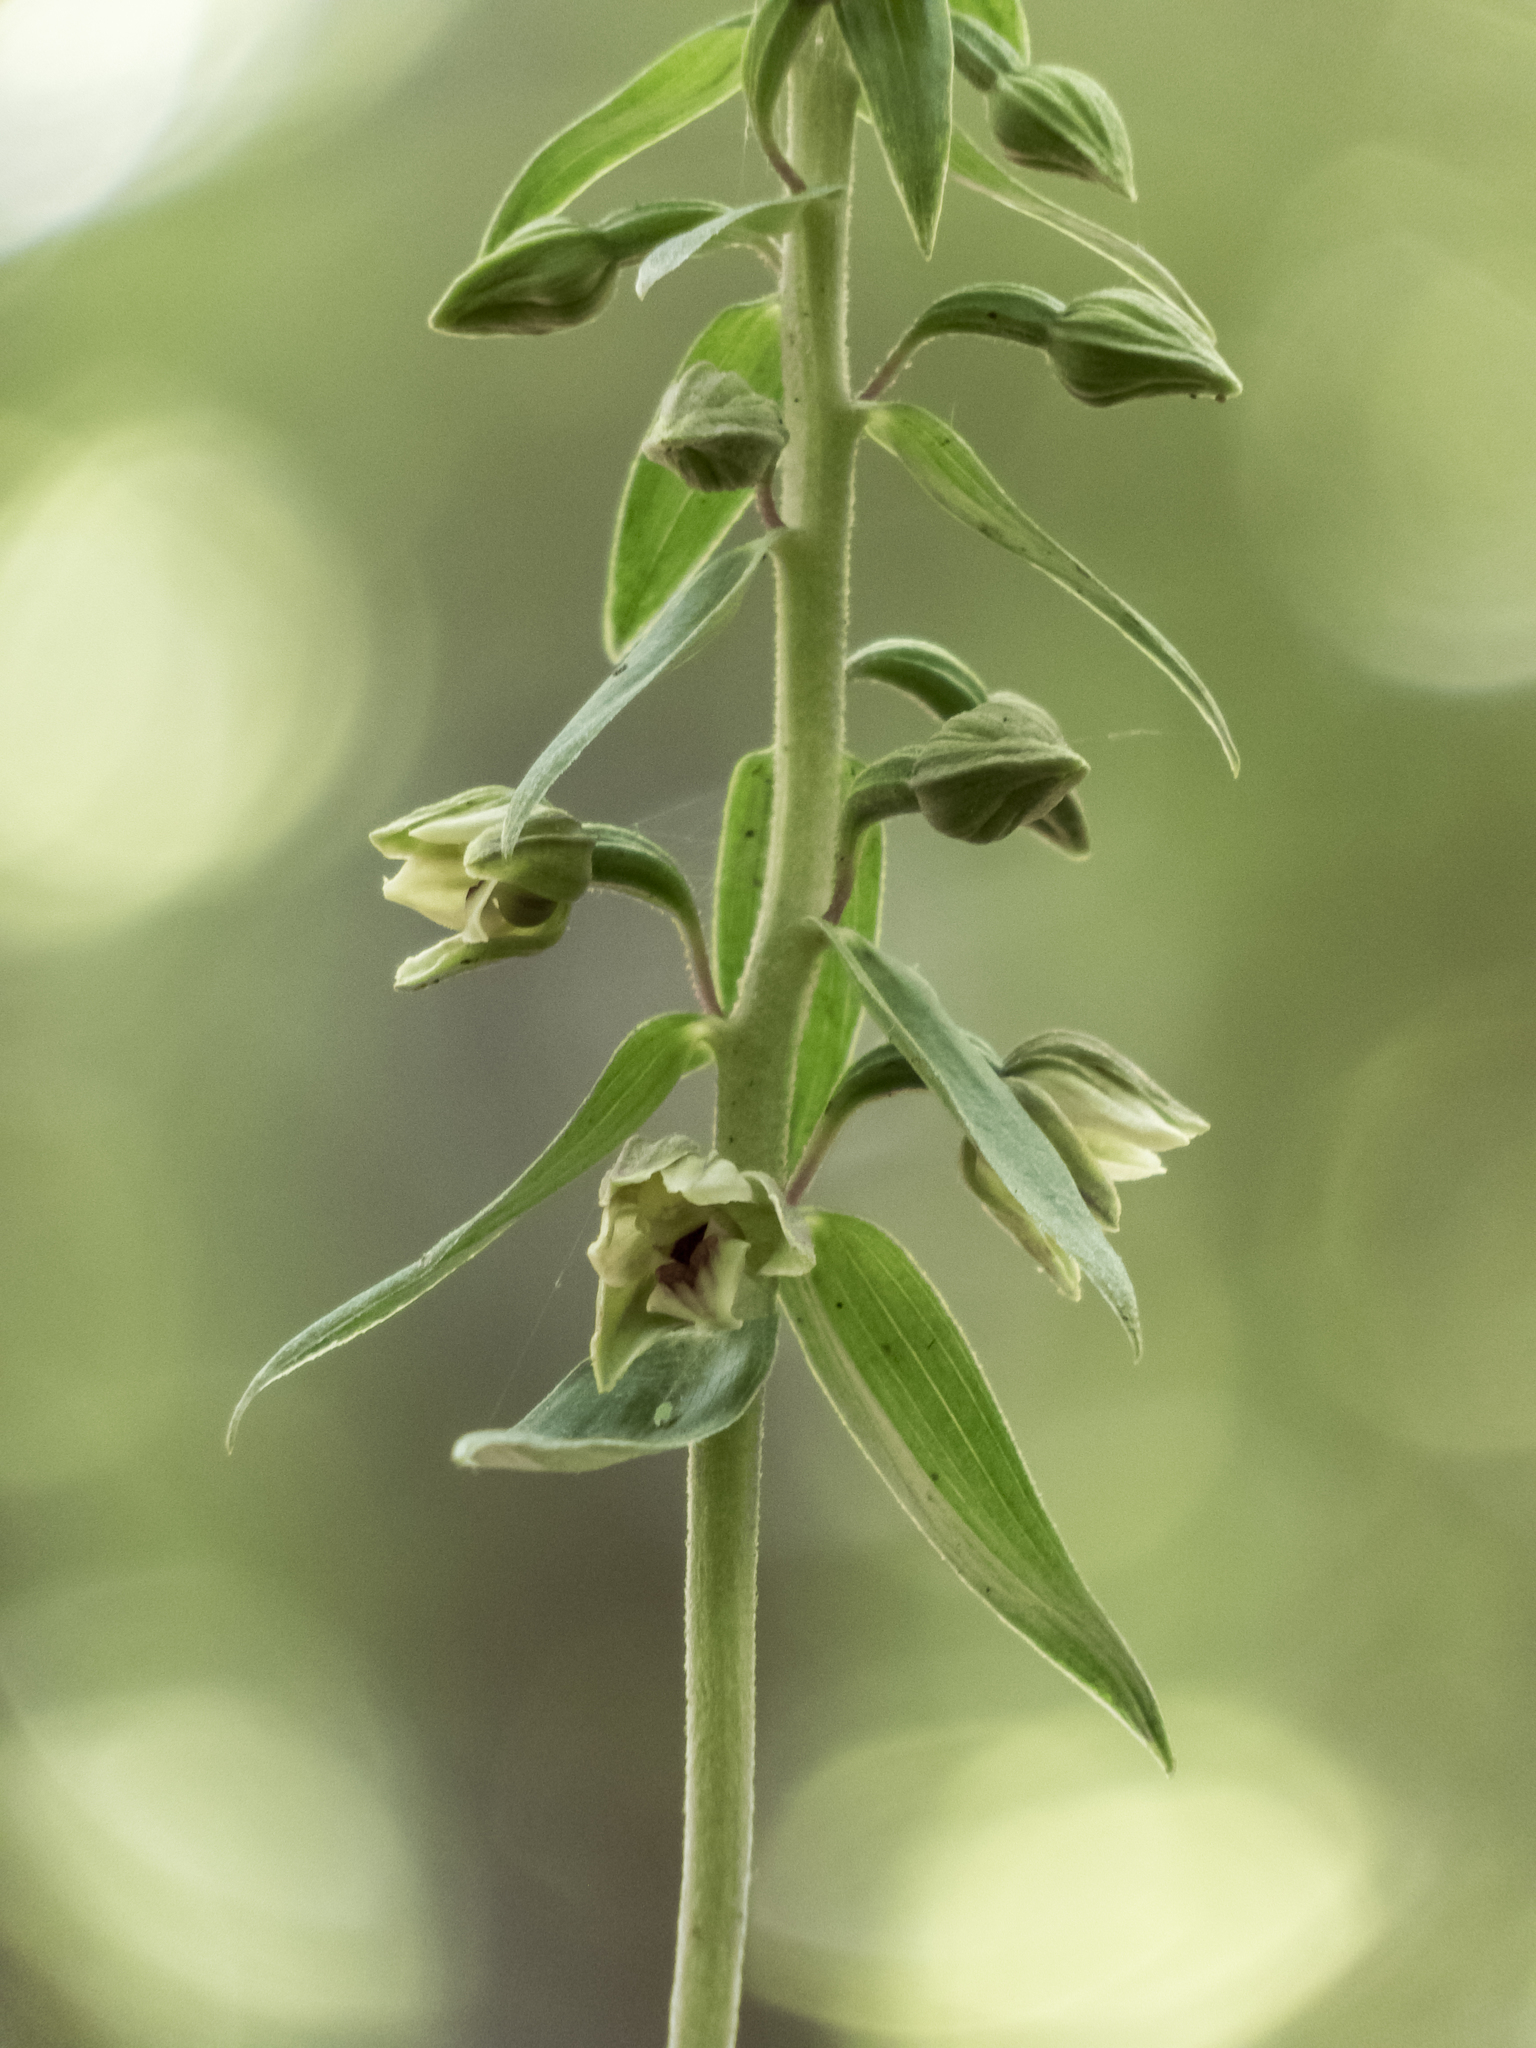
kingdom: Plantae
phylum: Tracheophyta
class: Liliopsida
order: Asparagales
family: Orchidaceae
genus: Epipactis
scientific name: Epipactis helleborine
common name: Broad-leaved helleborine
